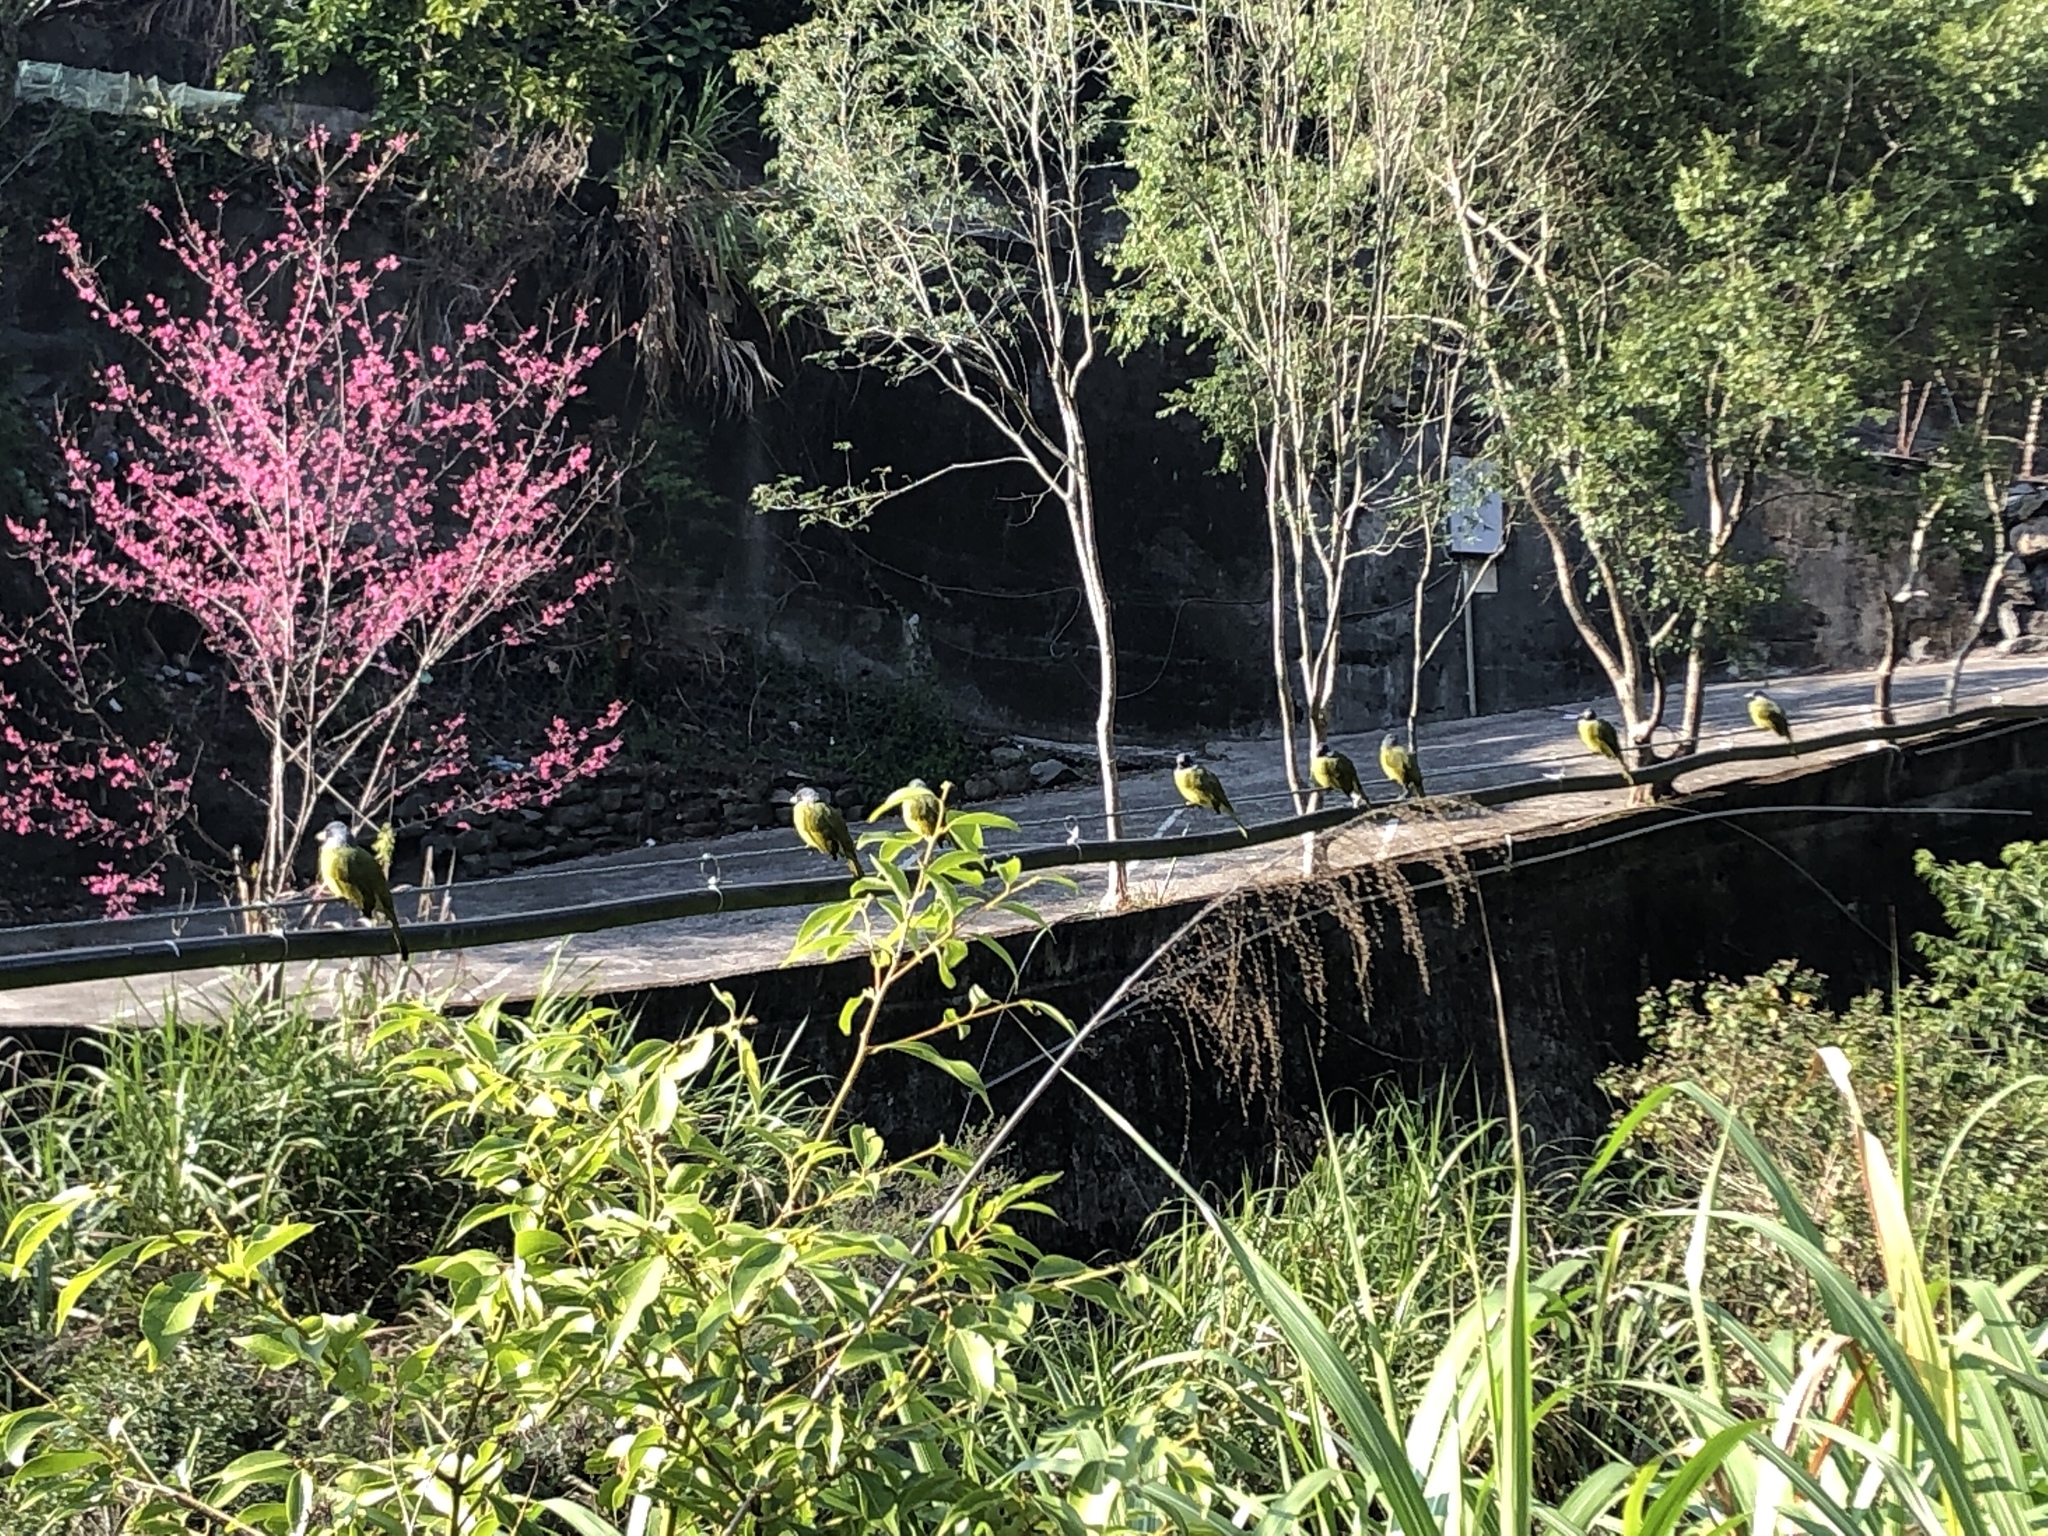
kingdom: Animalia
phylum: Chordata
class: Aves
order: Passeriformes
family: Pycnonotidae
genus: Spizixos
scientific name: Spizixos semitorques
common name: Collared finchbill
